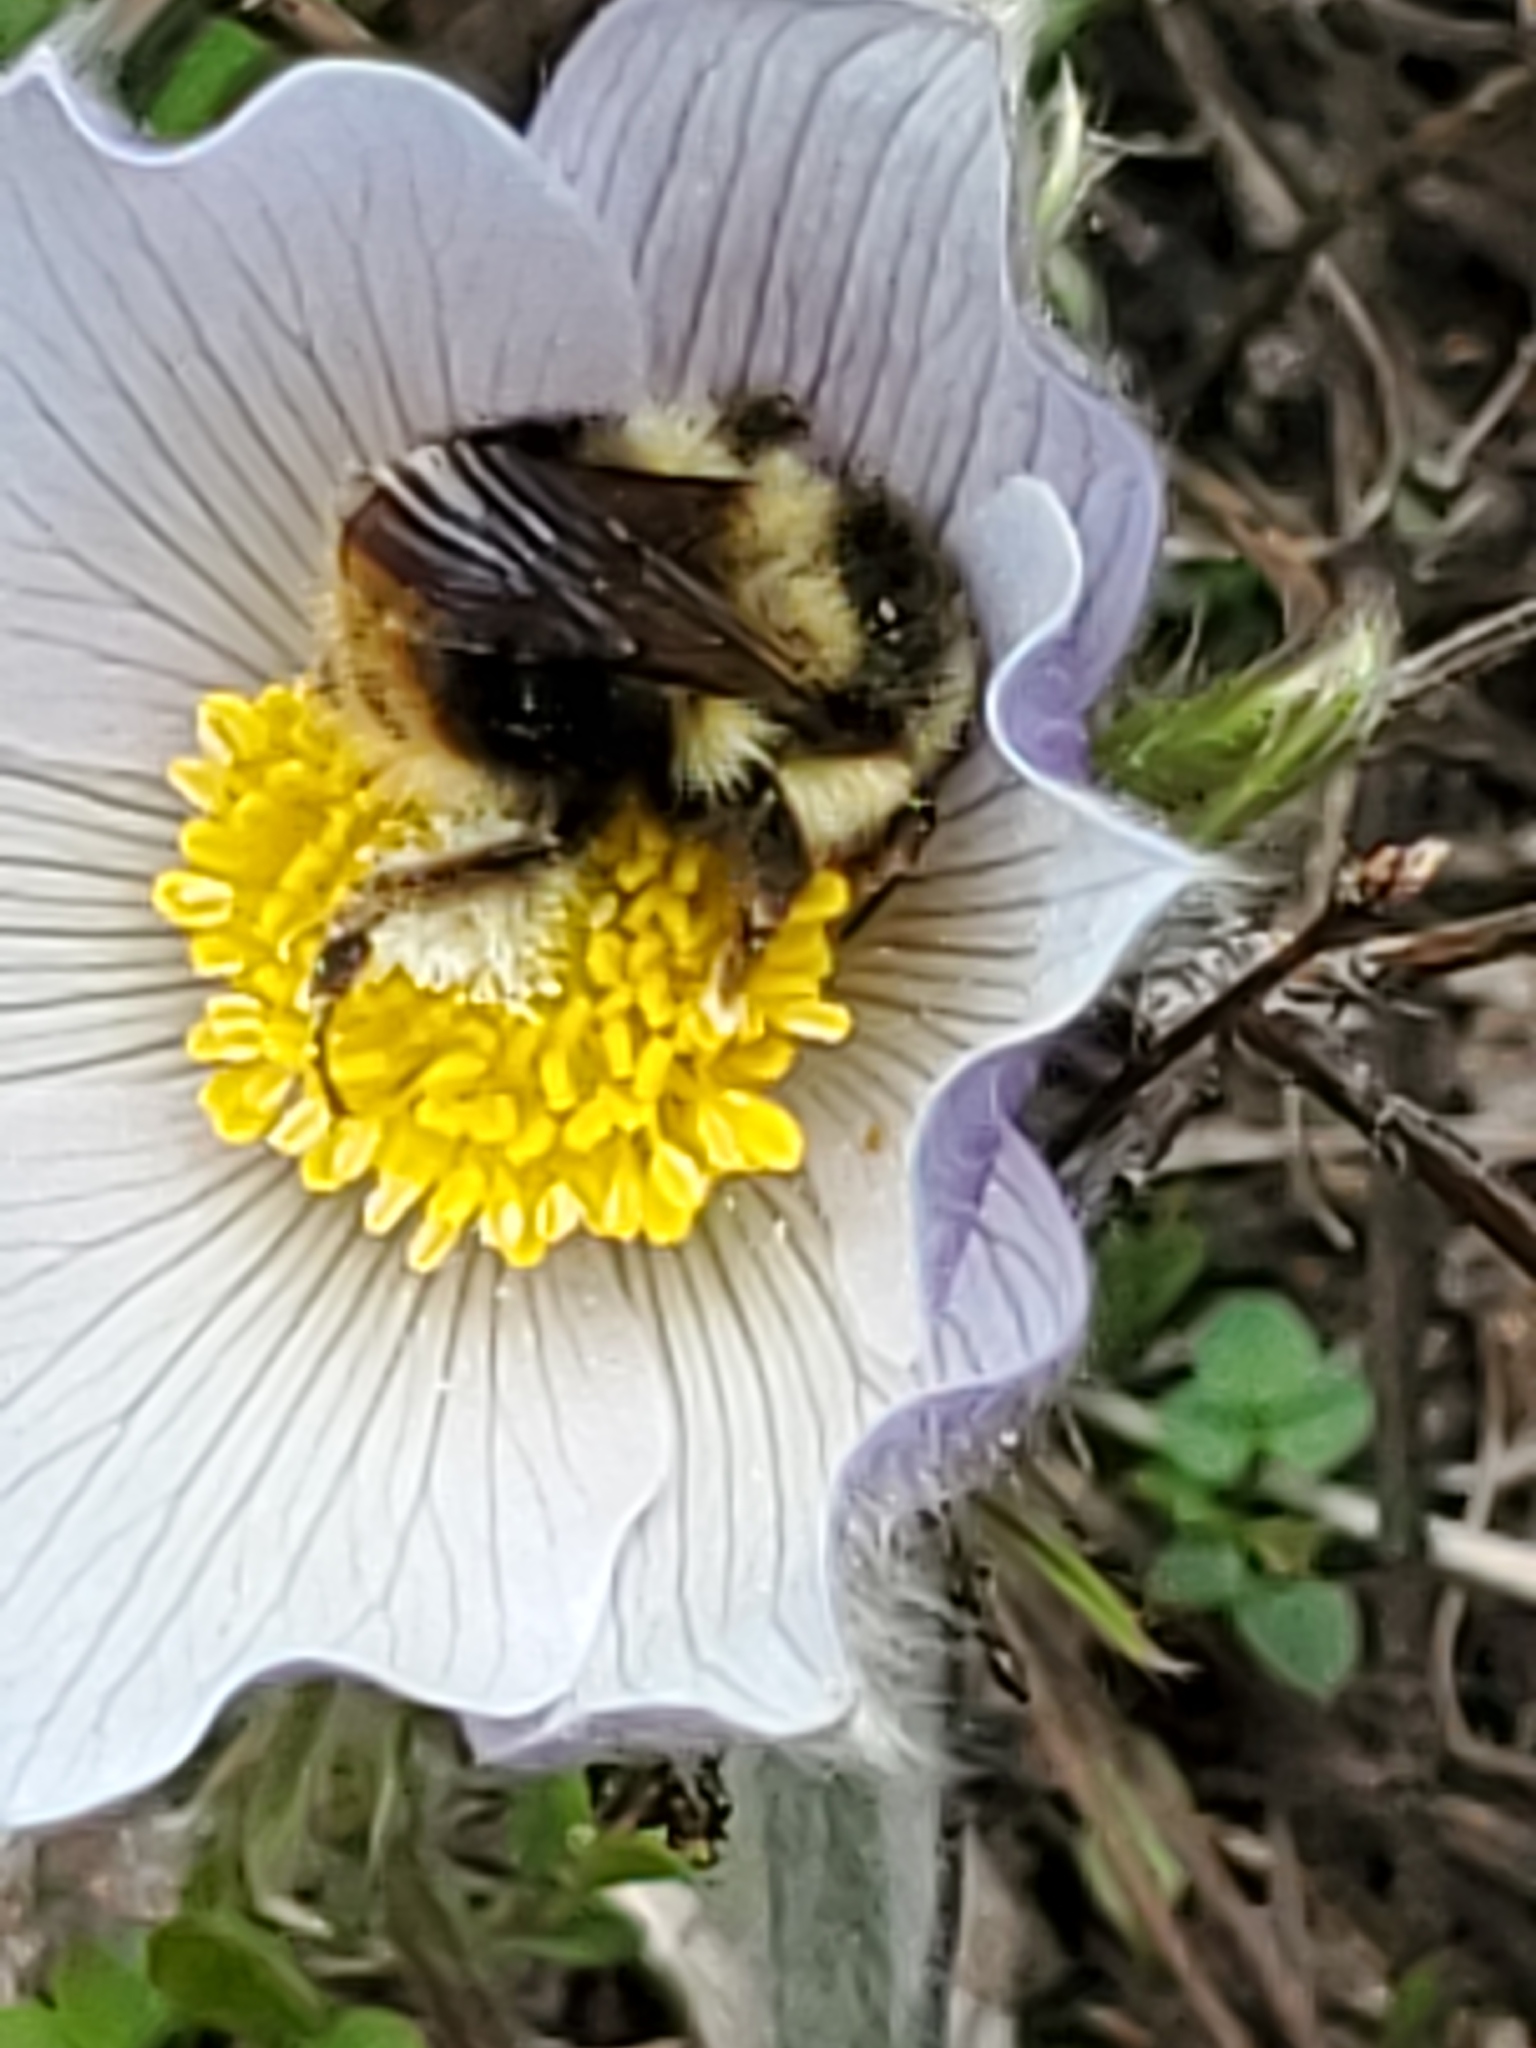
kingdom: Animalia
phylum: Arthropoda
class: Insecta
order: Hymenoptera
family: Apidae
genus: Bombus
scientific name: Bombus mixtus
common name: Fuzzy-horned bumble bee
